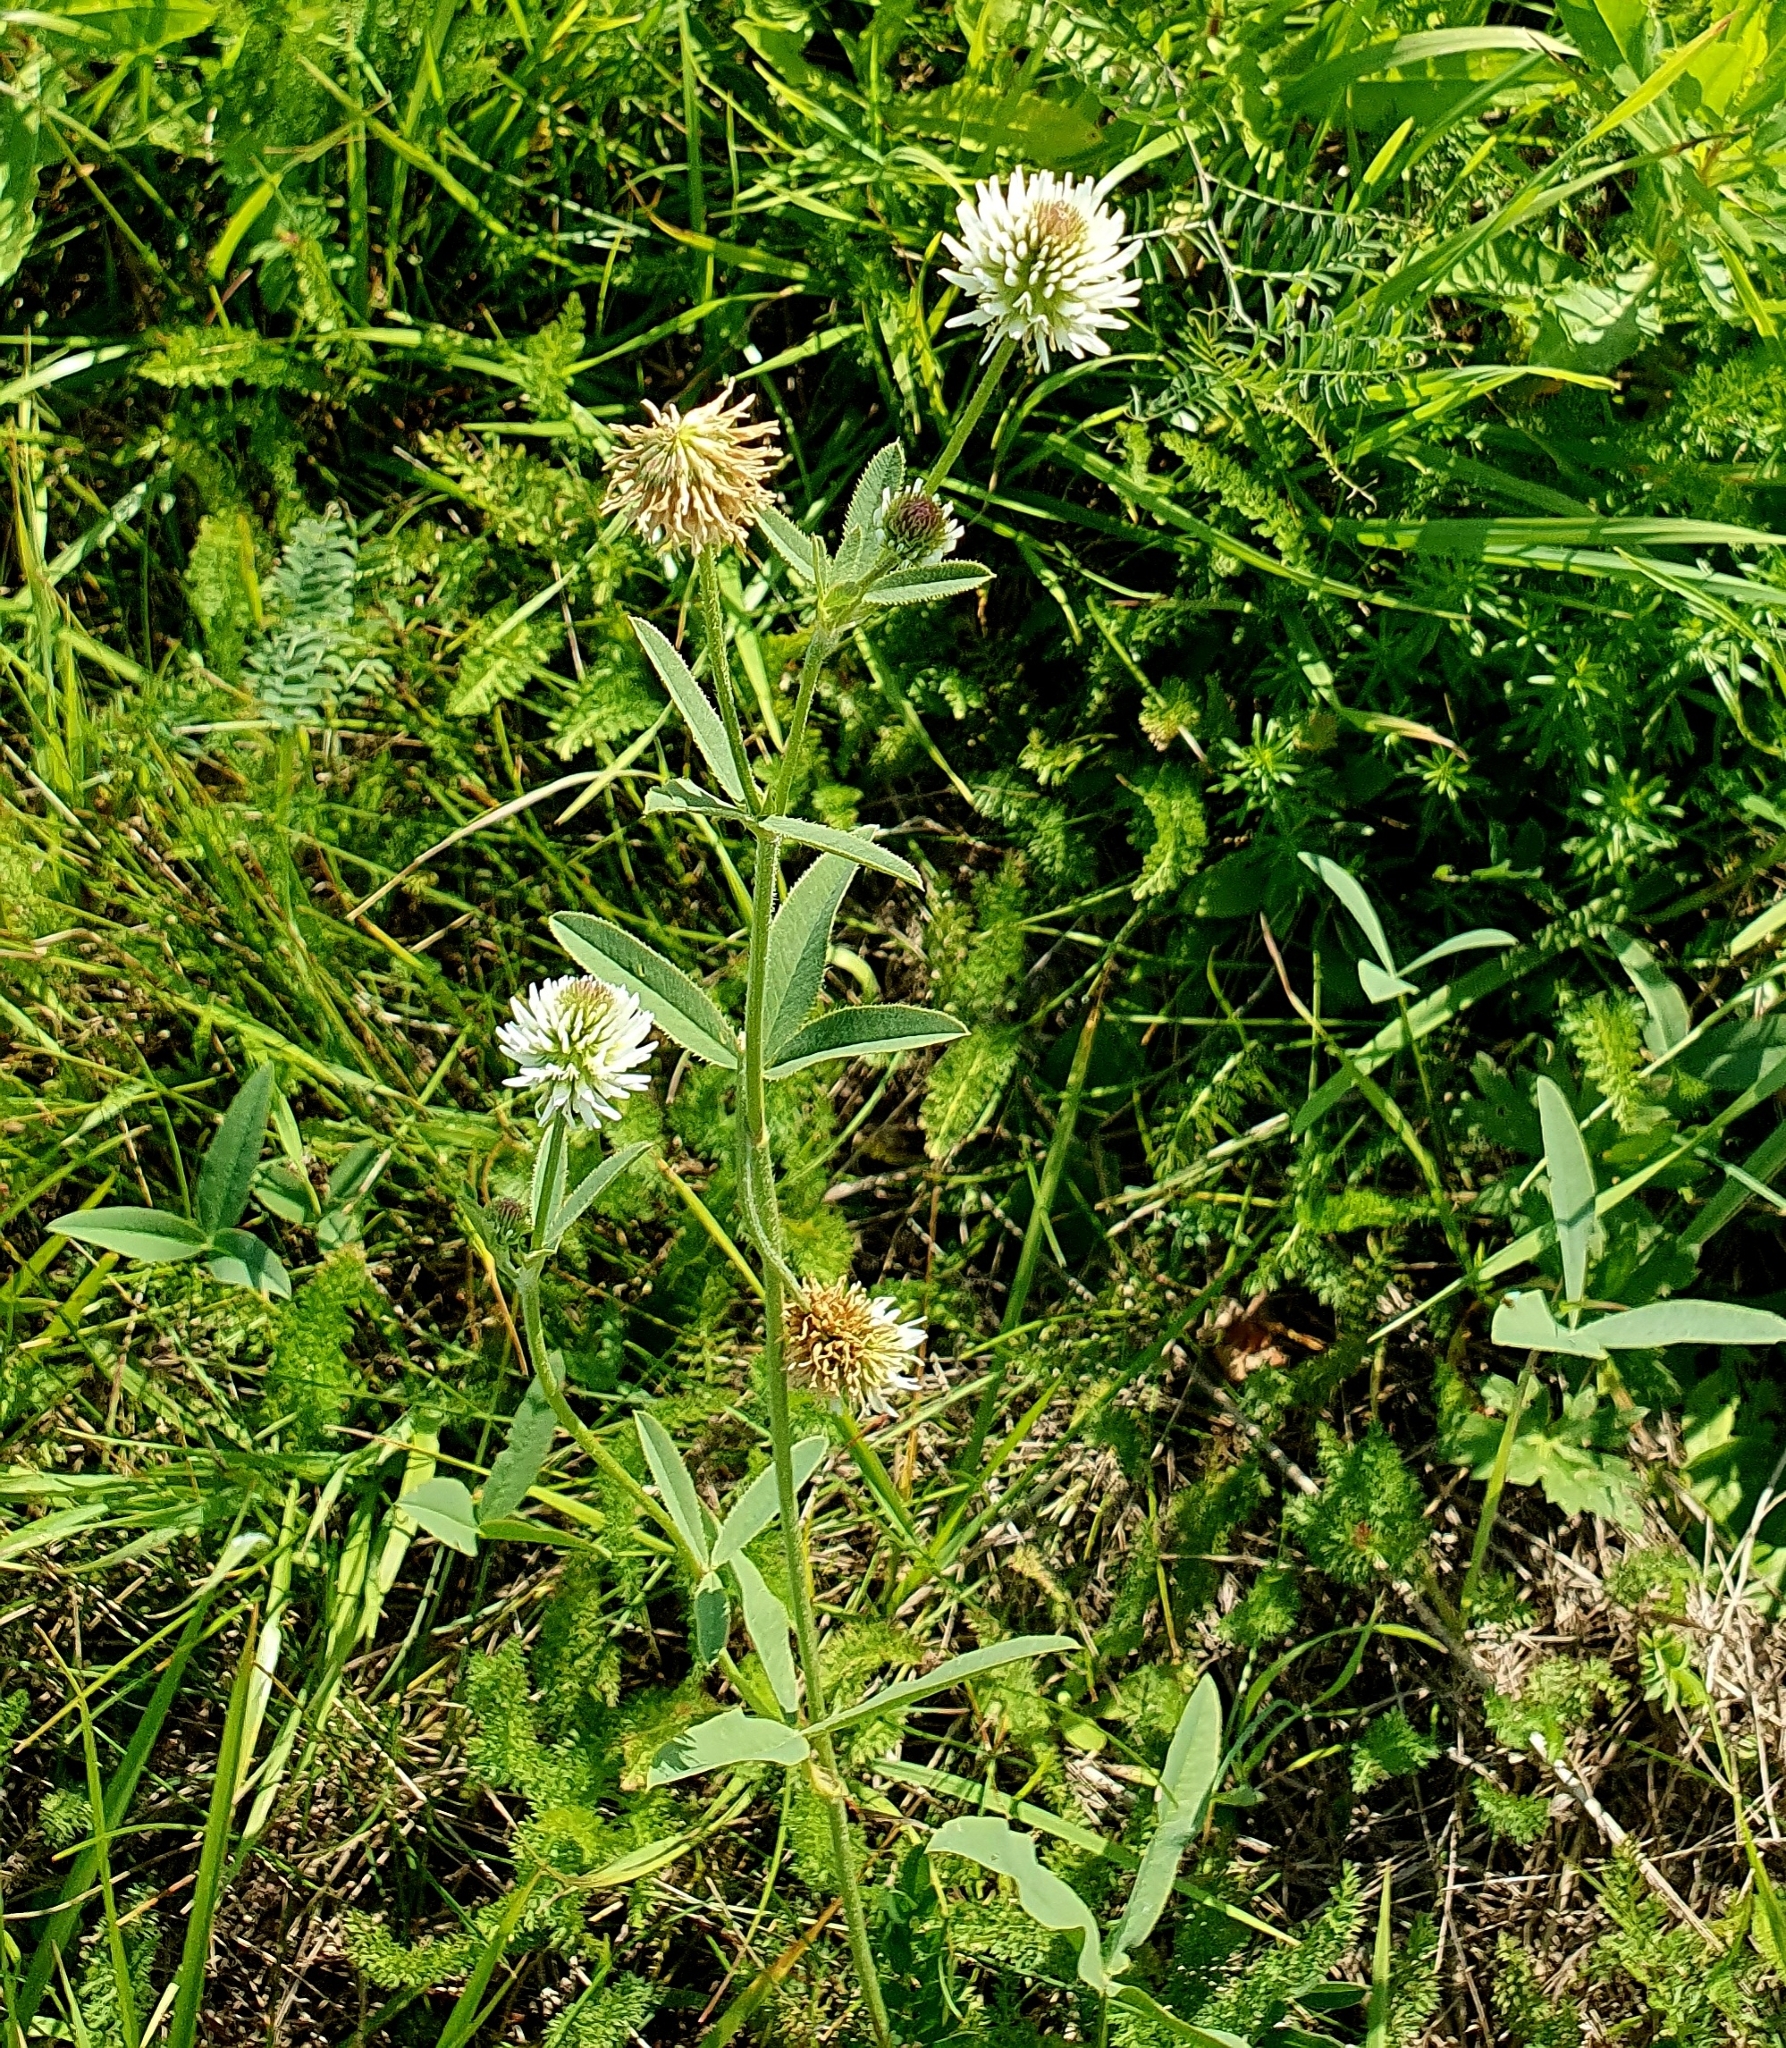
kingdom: Plantae
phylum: Tracheophyta
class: Magnoliopsida
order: Fabales
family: Fabaceae
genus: Trifolium
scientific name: Trifolium montanum
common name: Mountain clover
